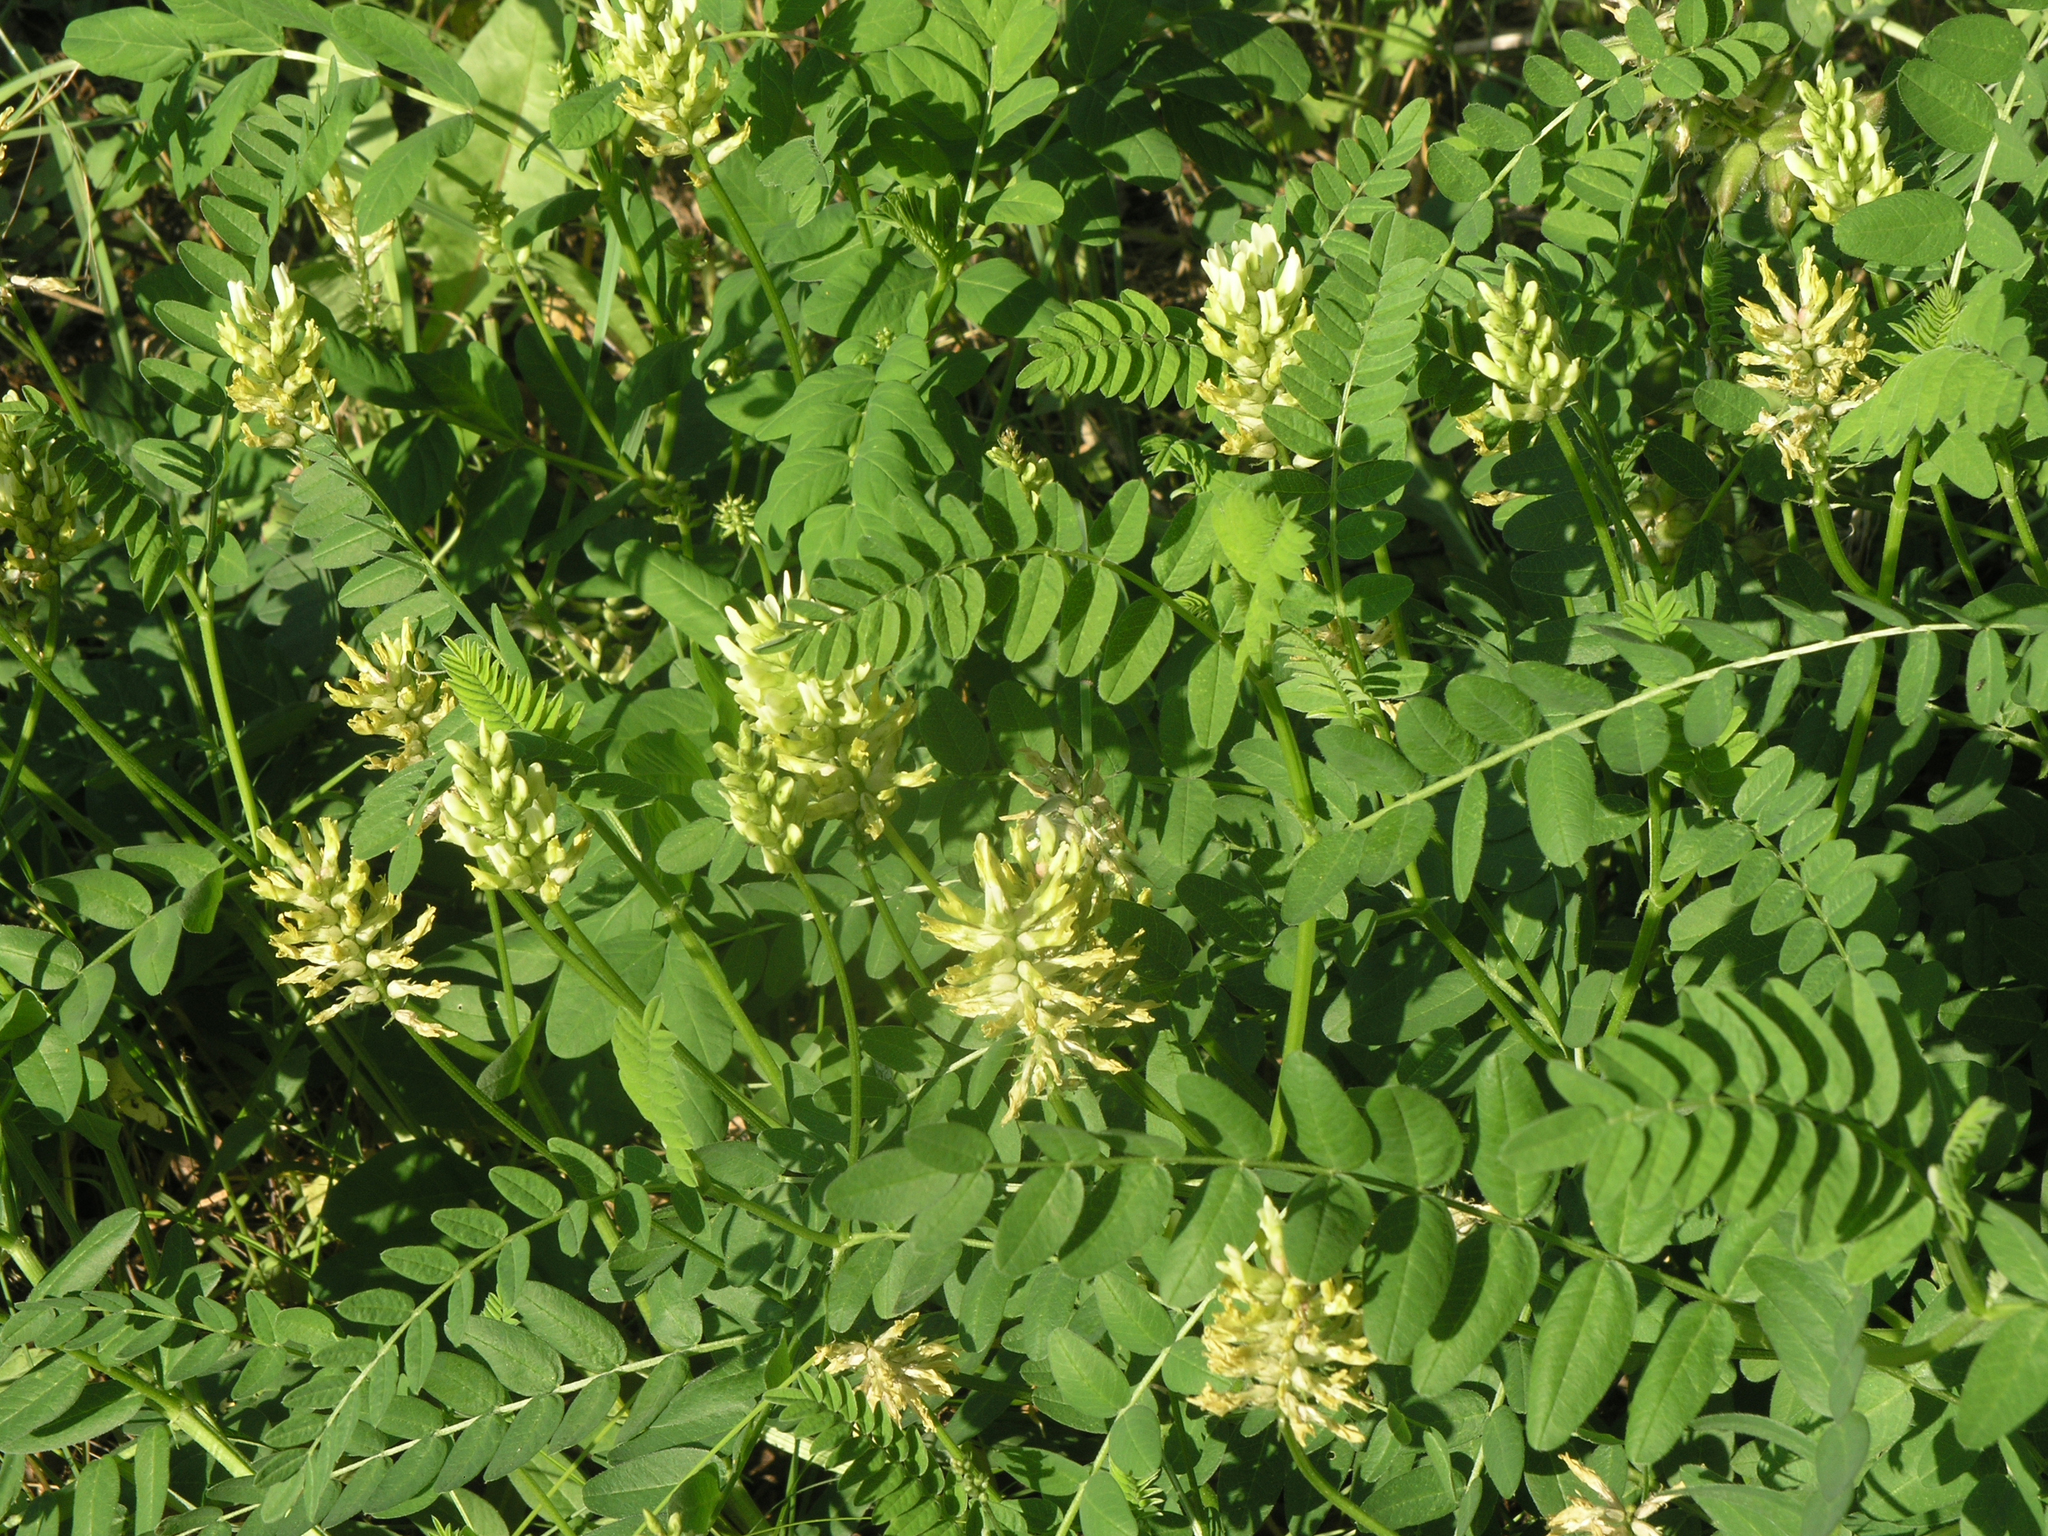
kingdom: Plantae
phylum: Tracheophyta
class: Magnoliopsida
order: Fabales
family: Fabaceae
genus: Astragalus
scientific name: Astragalus cicer
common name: Chick-pea milk-vetch
